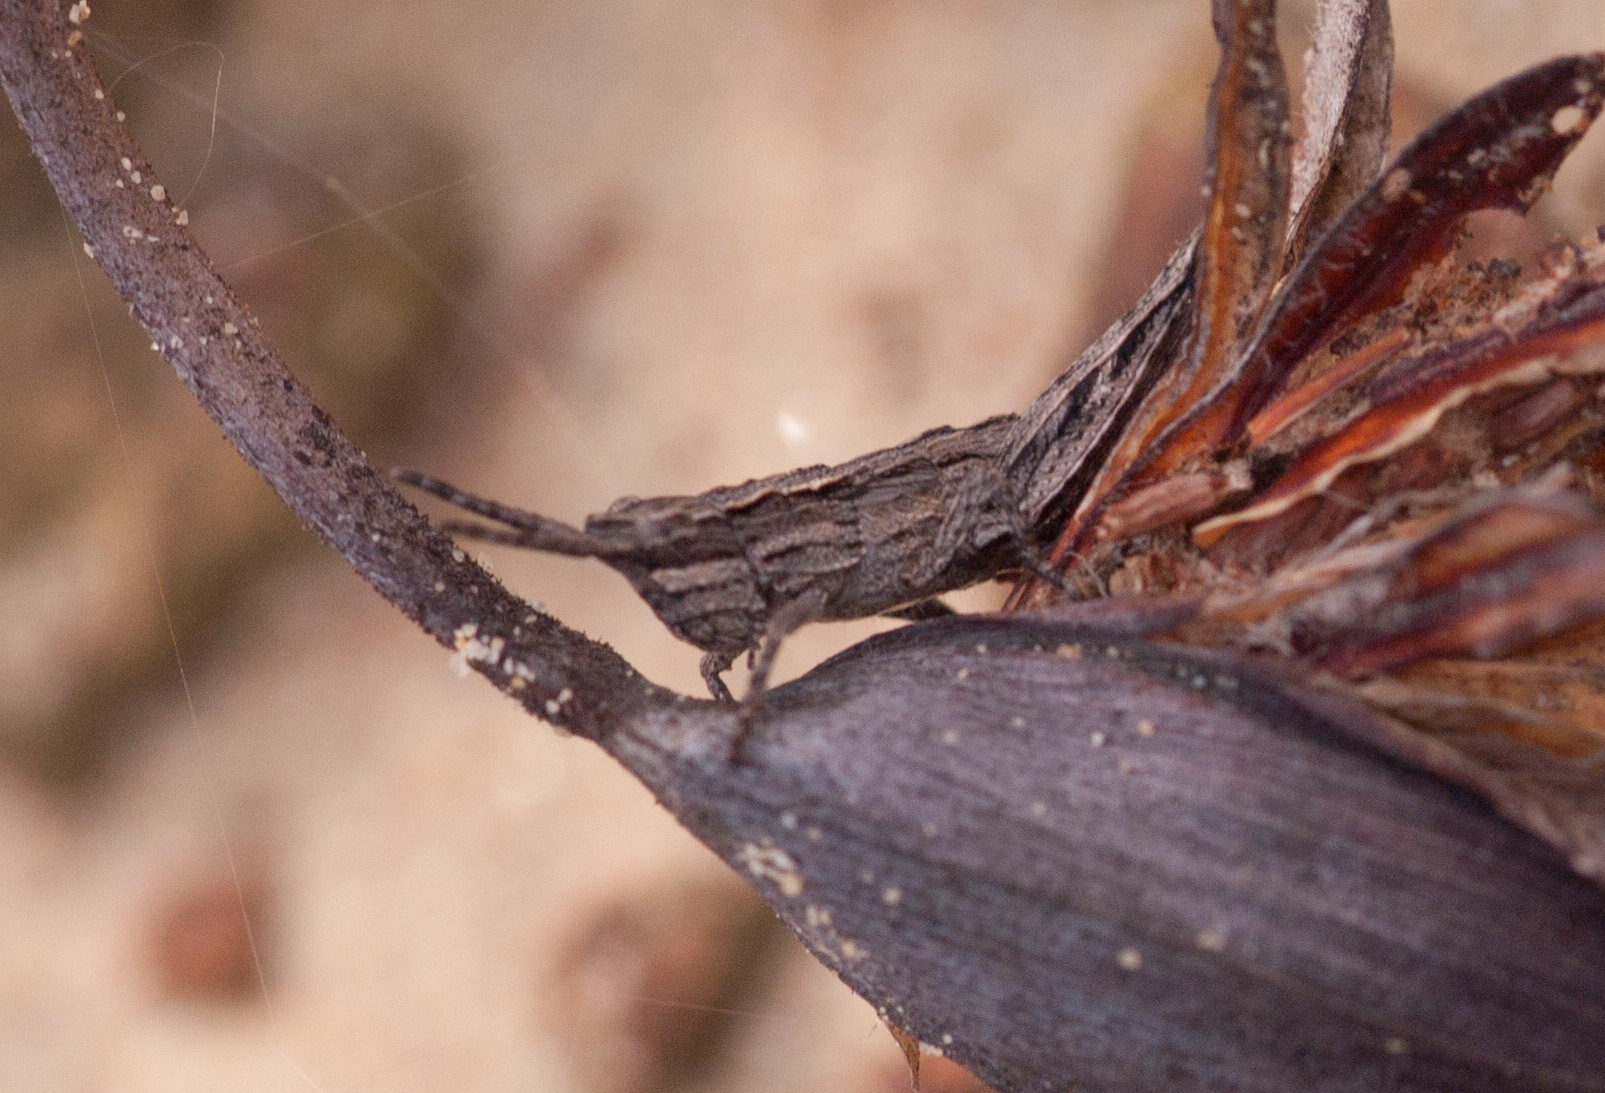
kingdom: Animalia
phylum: Arthropoda
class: Insecta
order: Orthoptera
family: Acrididae
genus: Coryphistes
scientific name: Coryphistes ruricola
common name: Bark-mimicking grasshopper
